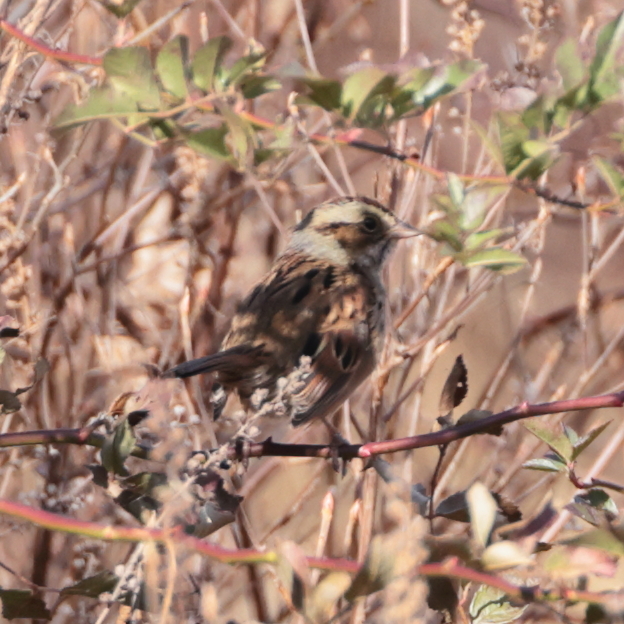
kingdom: Animalia
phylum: Chordata
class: Aves
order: Passeriformes
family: Passerellidae
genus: Melospiza
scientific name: Melospiza georgiana
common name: Swamp sparrow
